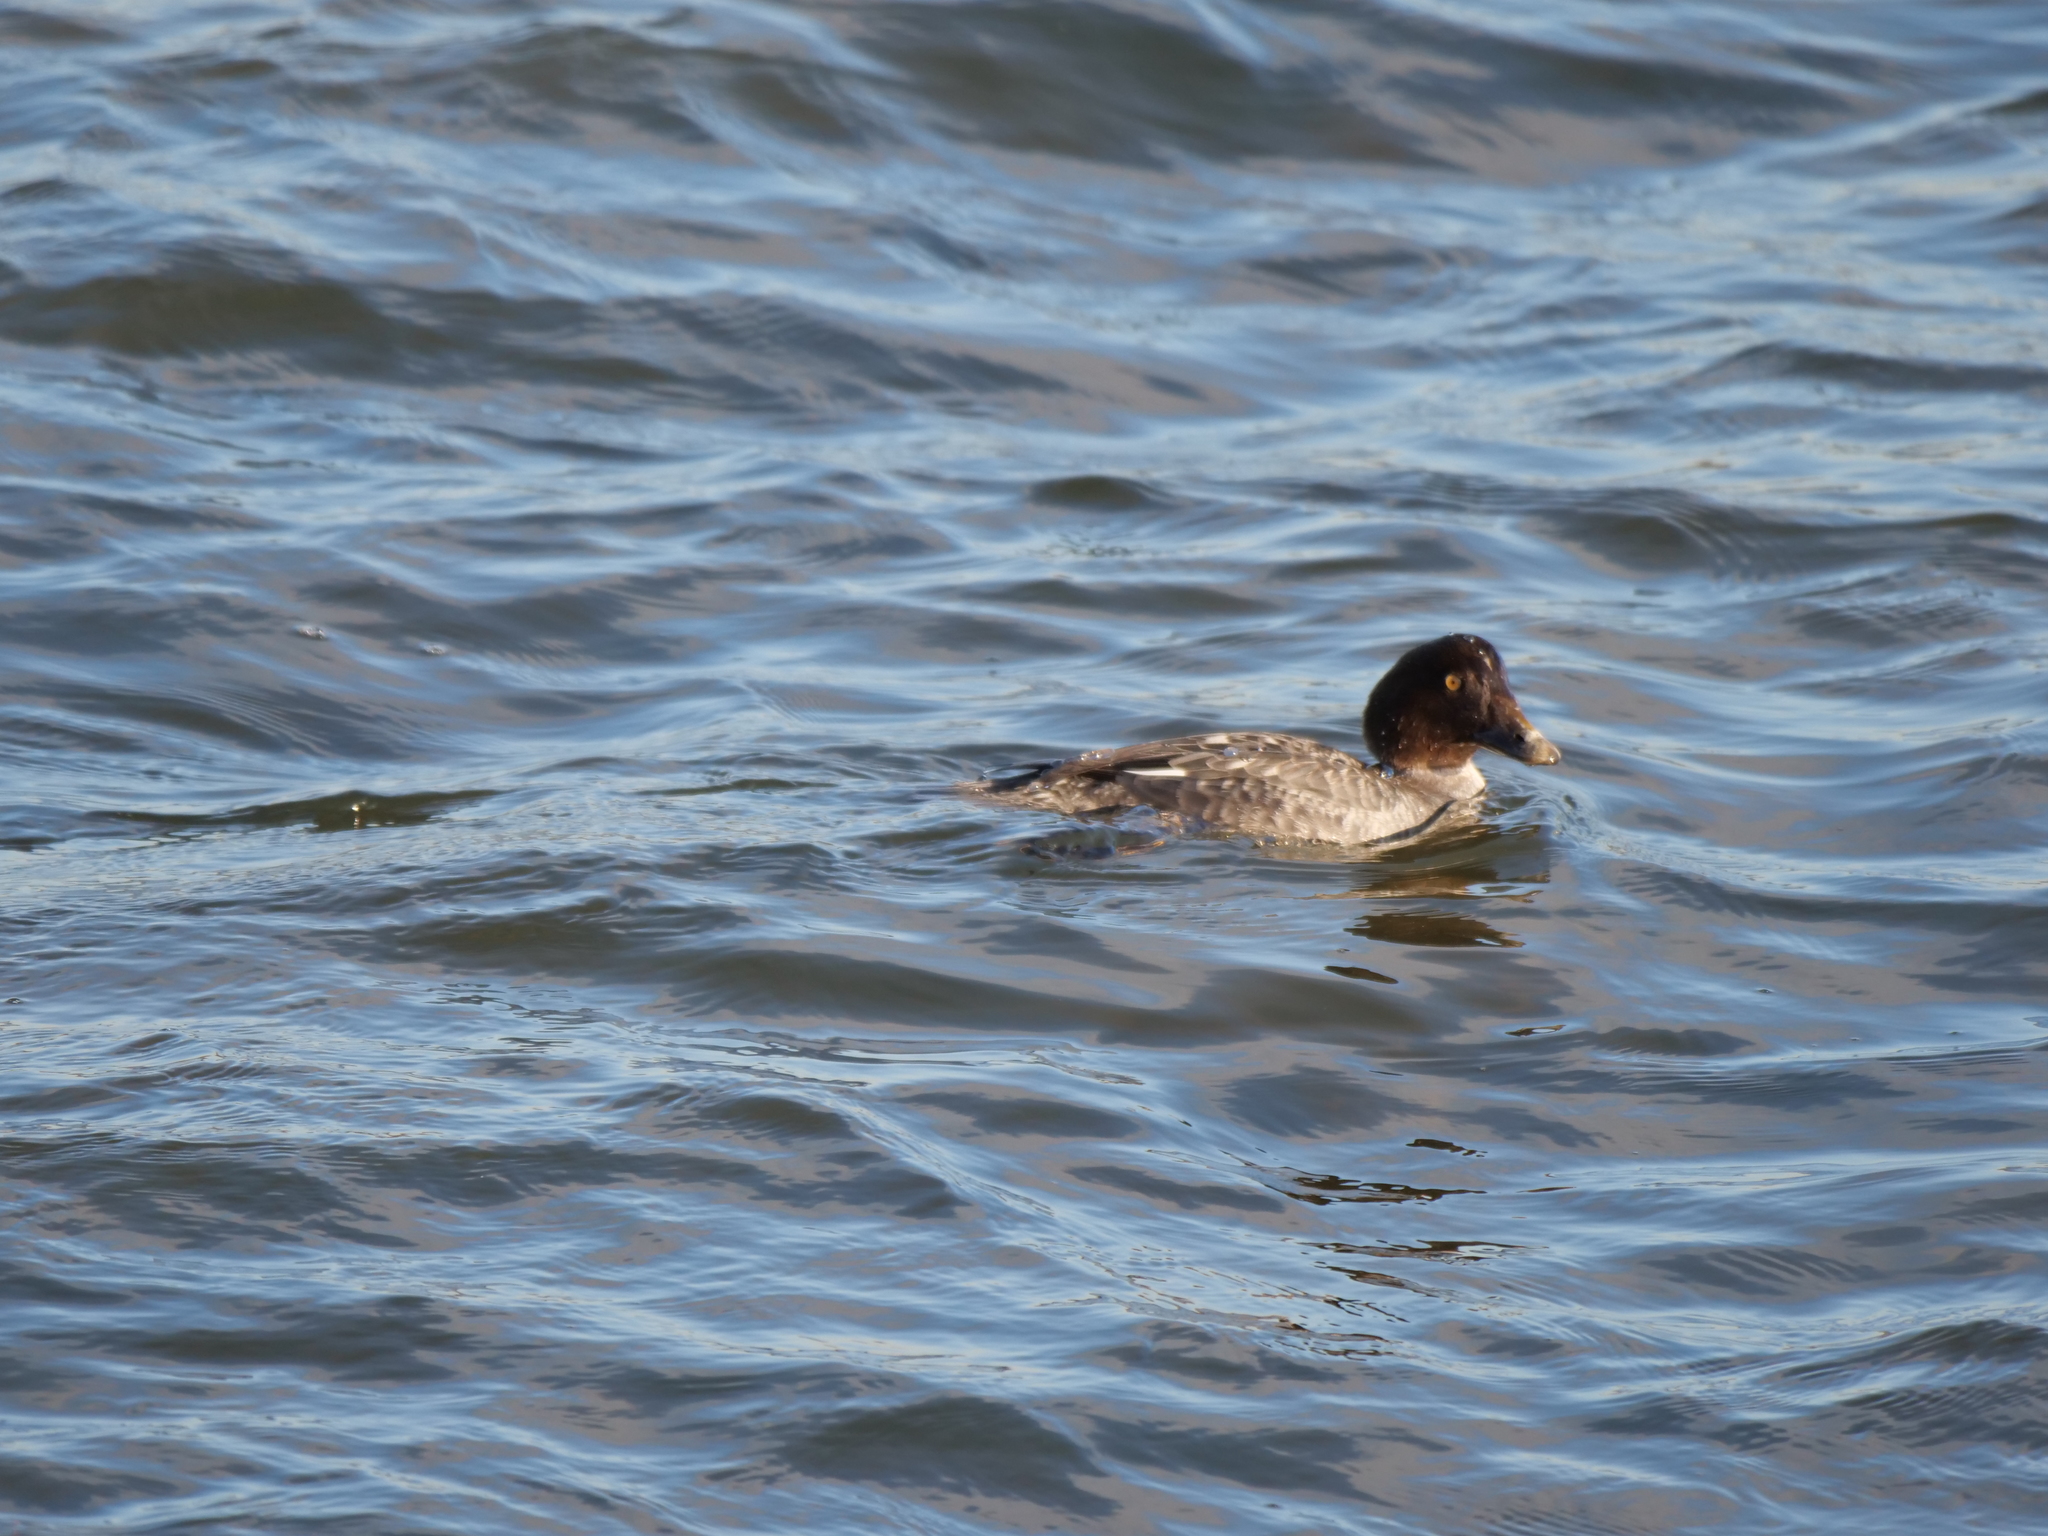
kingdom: Animalia
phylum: Chordata
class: Aves
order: Anseriformes
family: Anatidae
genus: Bucephala
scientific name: Bucephala clangula
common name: Common goldeneye
